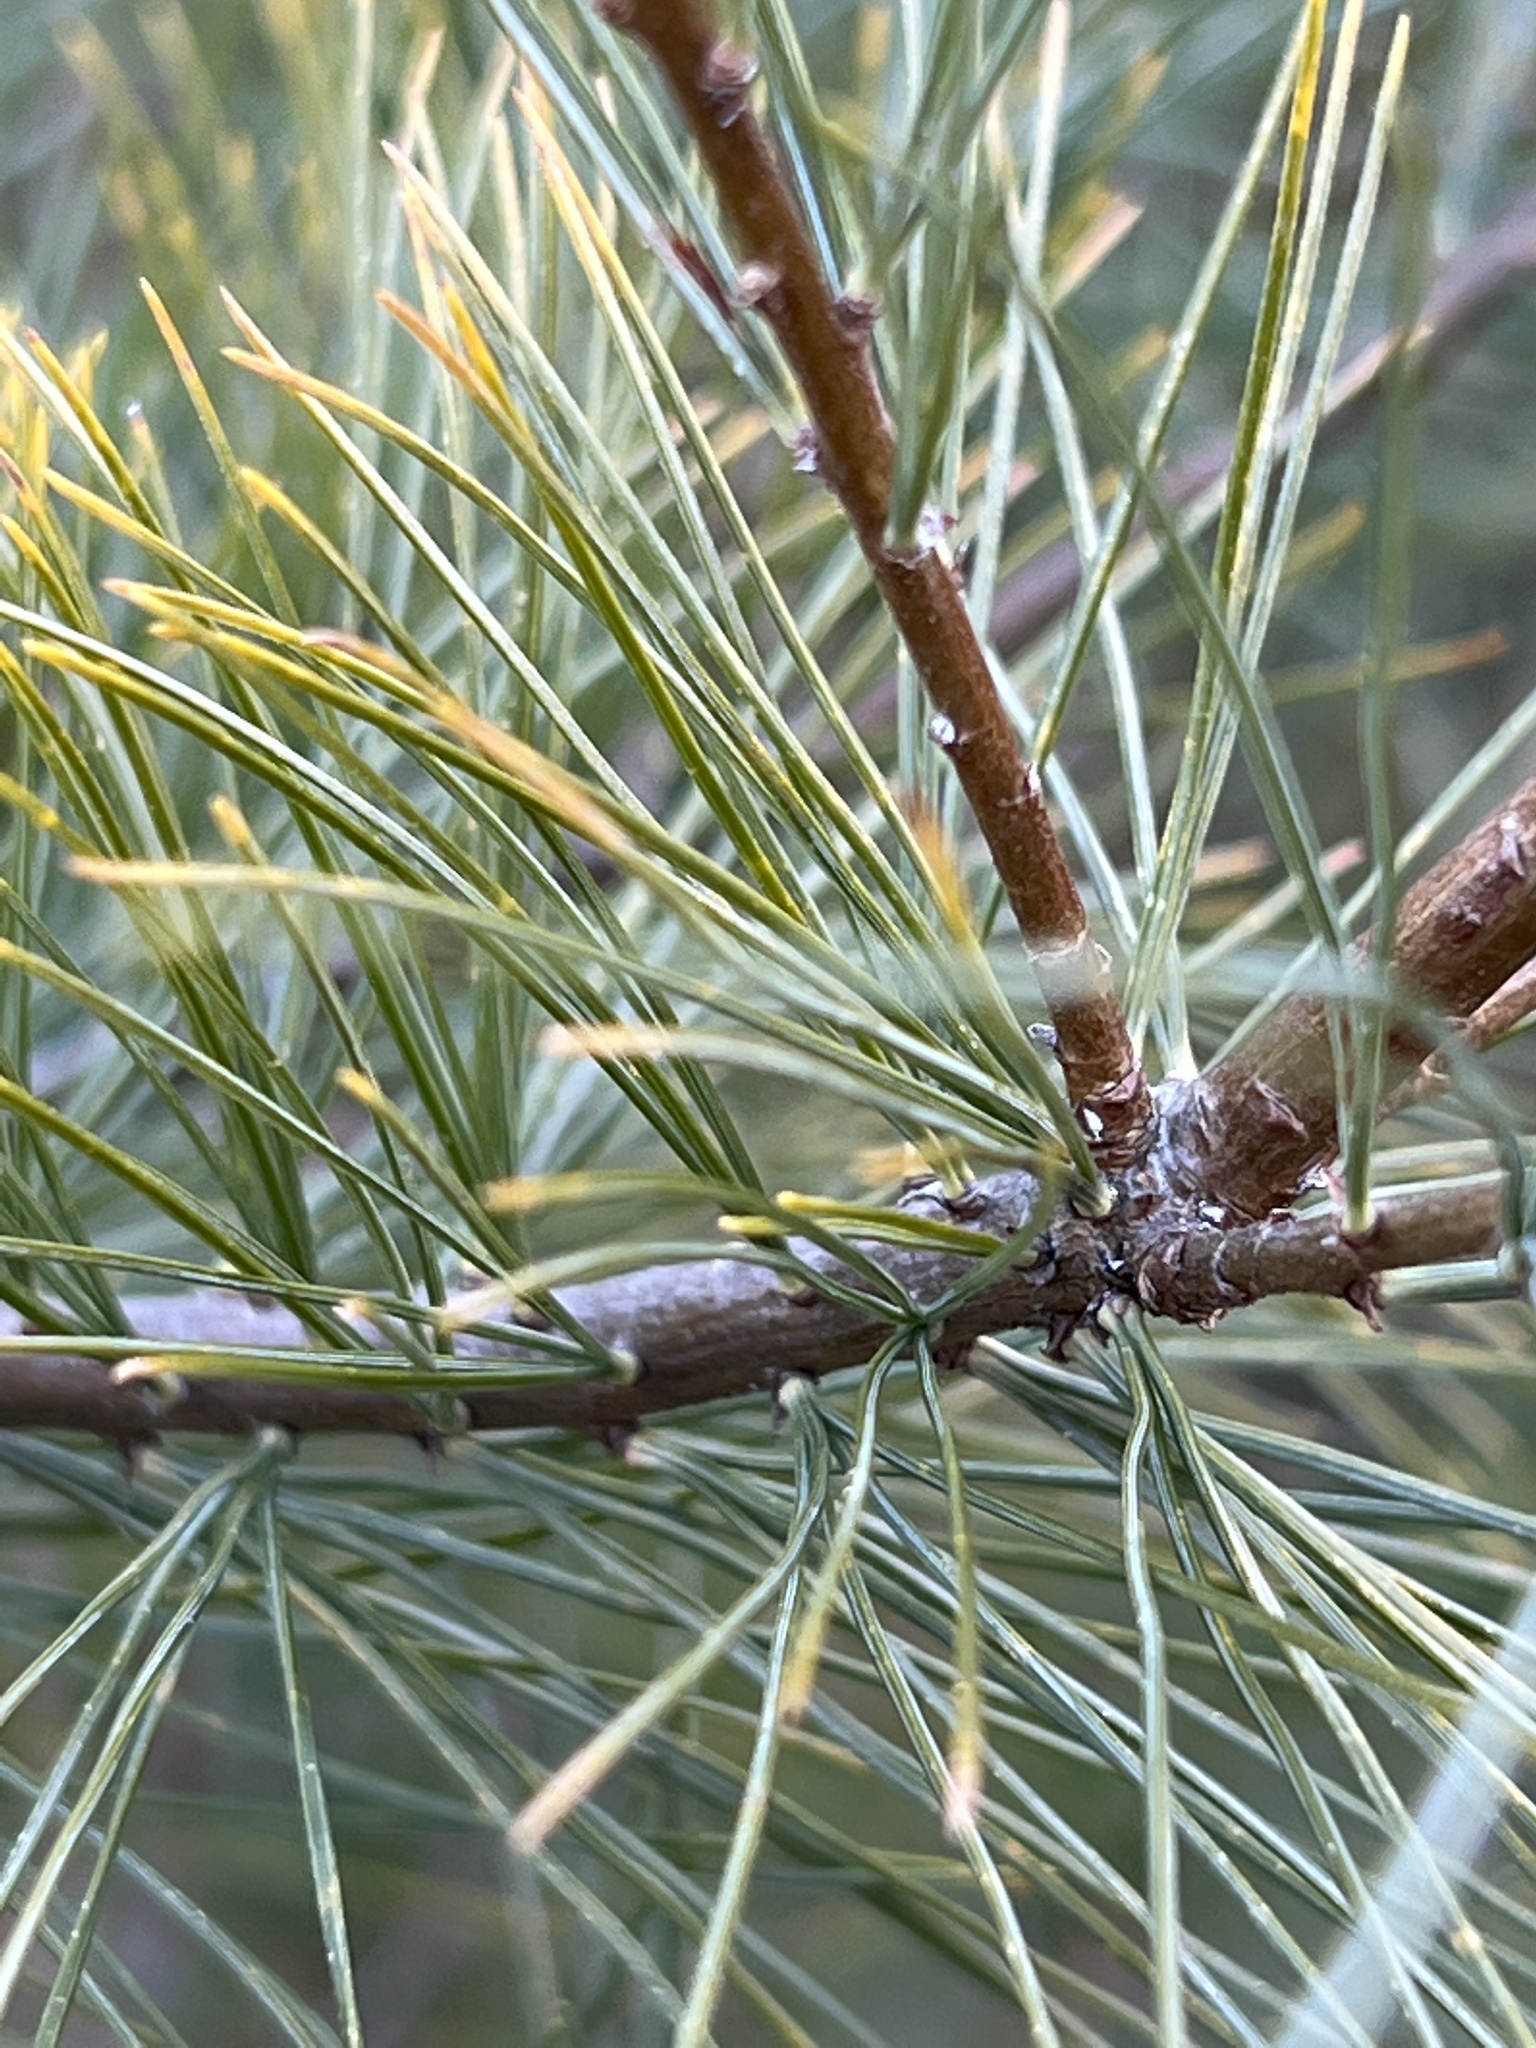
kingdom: Plantae
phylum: Tracheophyta
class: Pinopsida
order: Pinales
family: Pinaceae
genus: Pinus
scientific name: Pinus strobus
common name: Weymouth pine
